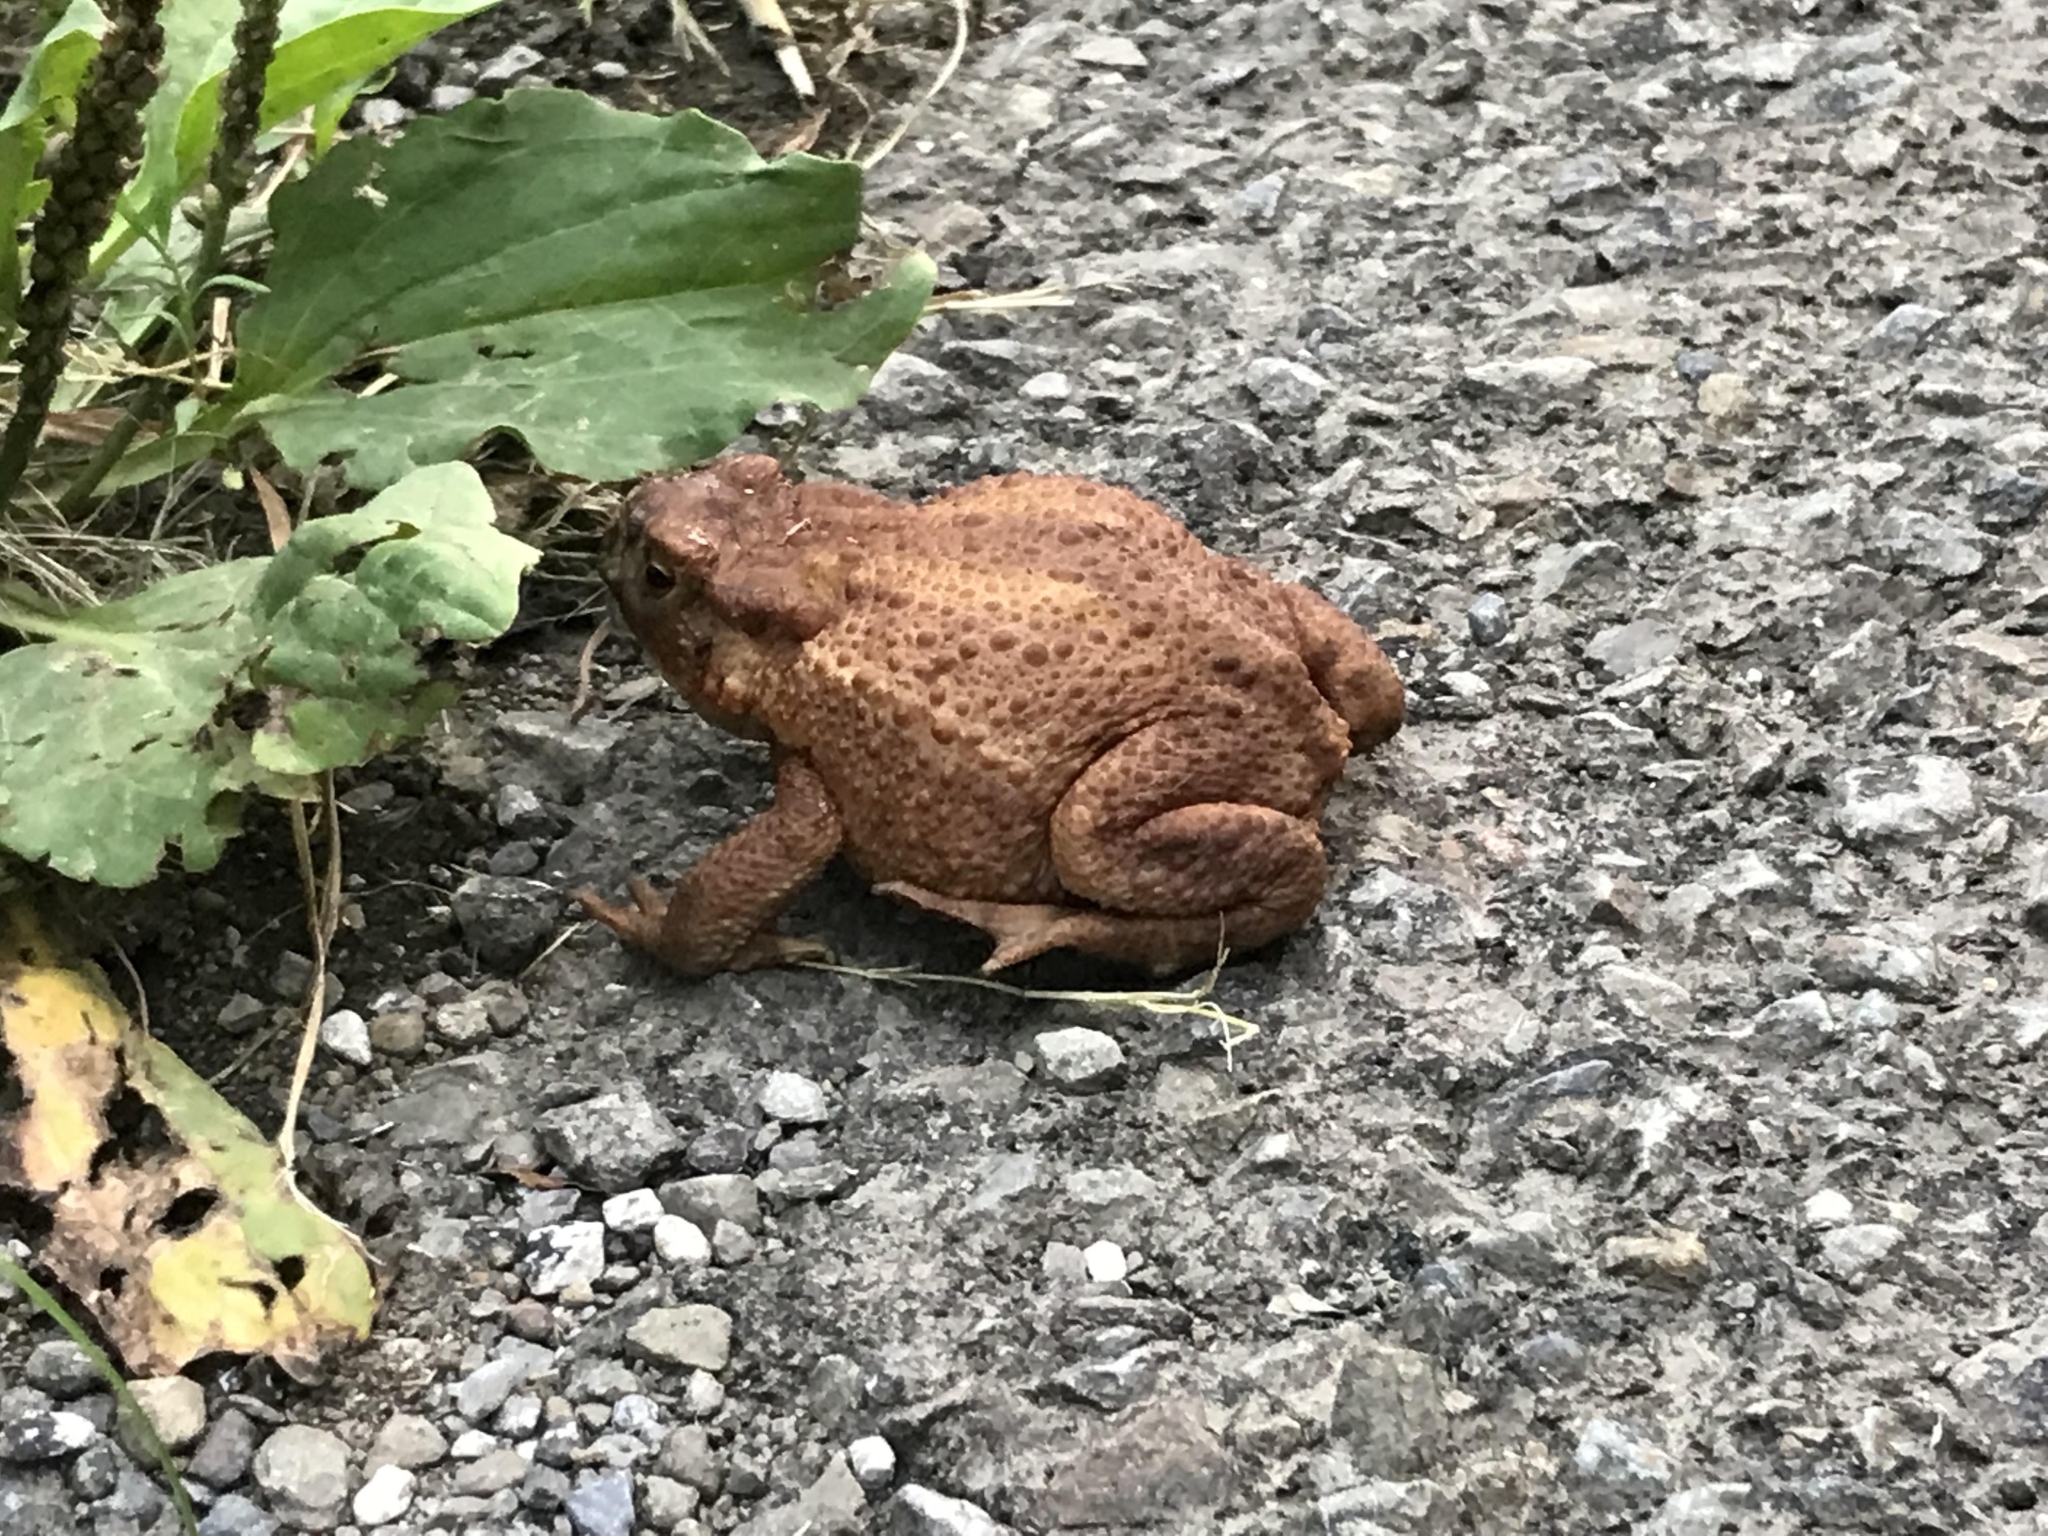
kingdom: Animalia
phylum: Chordata
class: Amphibia
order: Anura
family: Bufonidae
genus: Bufo
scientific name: Bufo bufo
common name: Common toad
